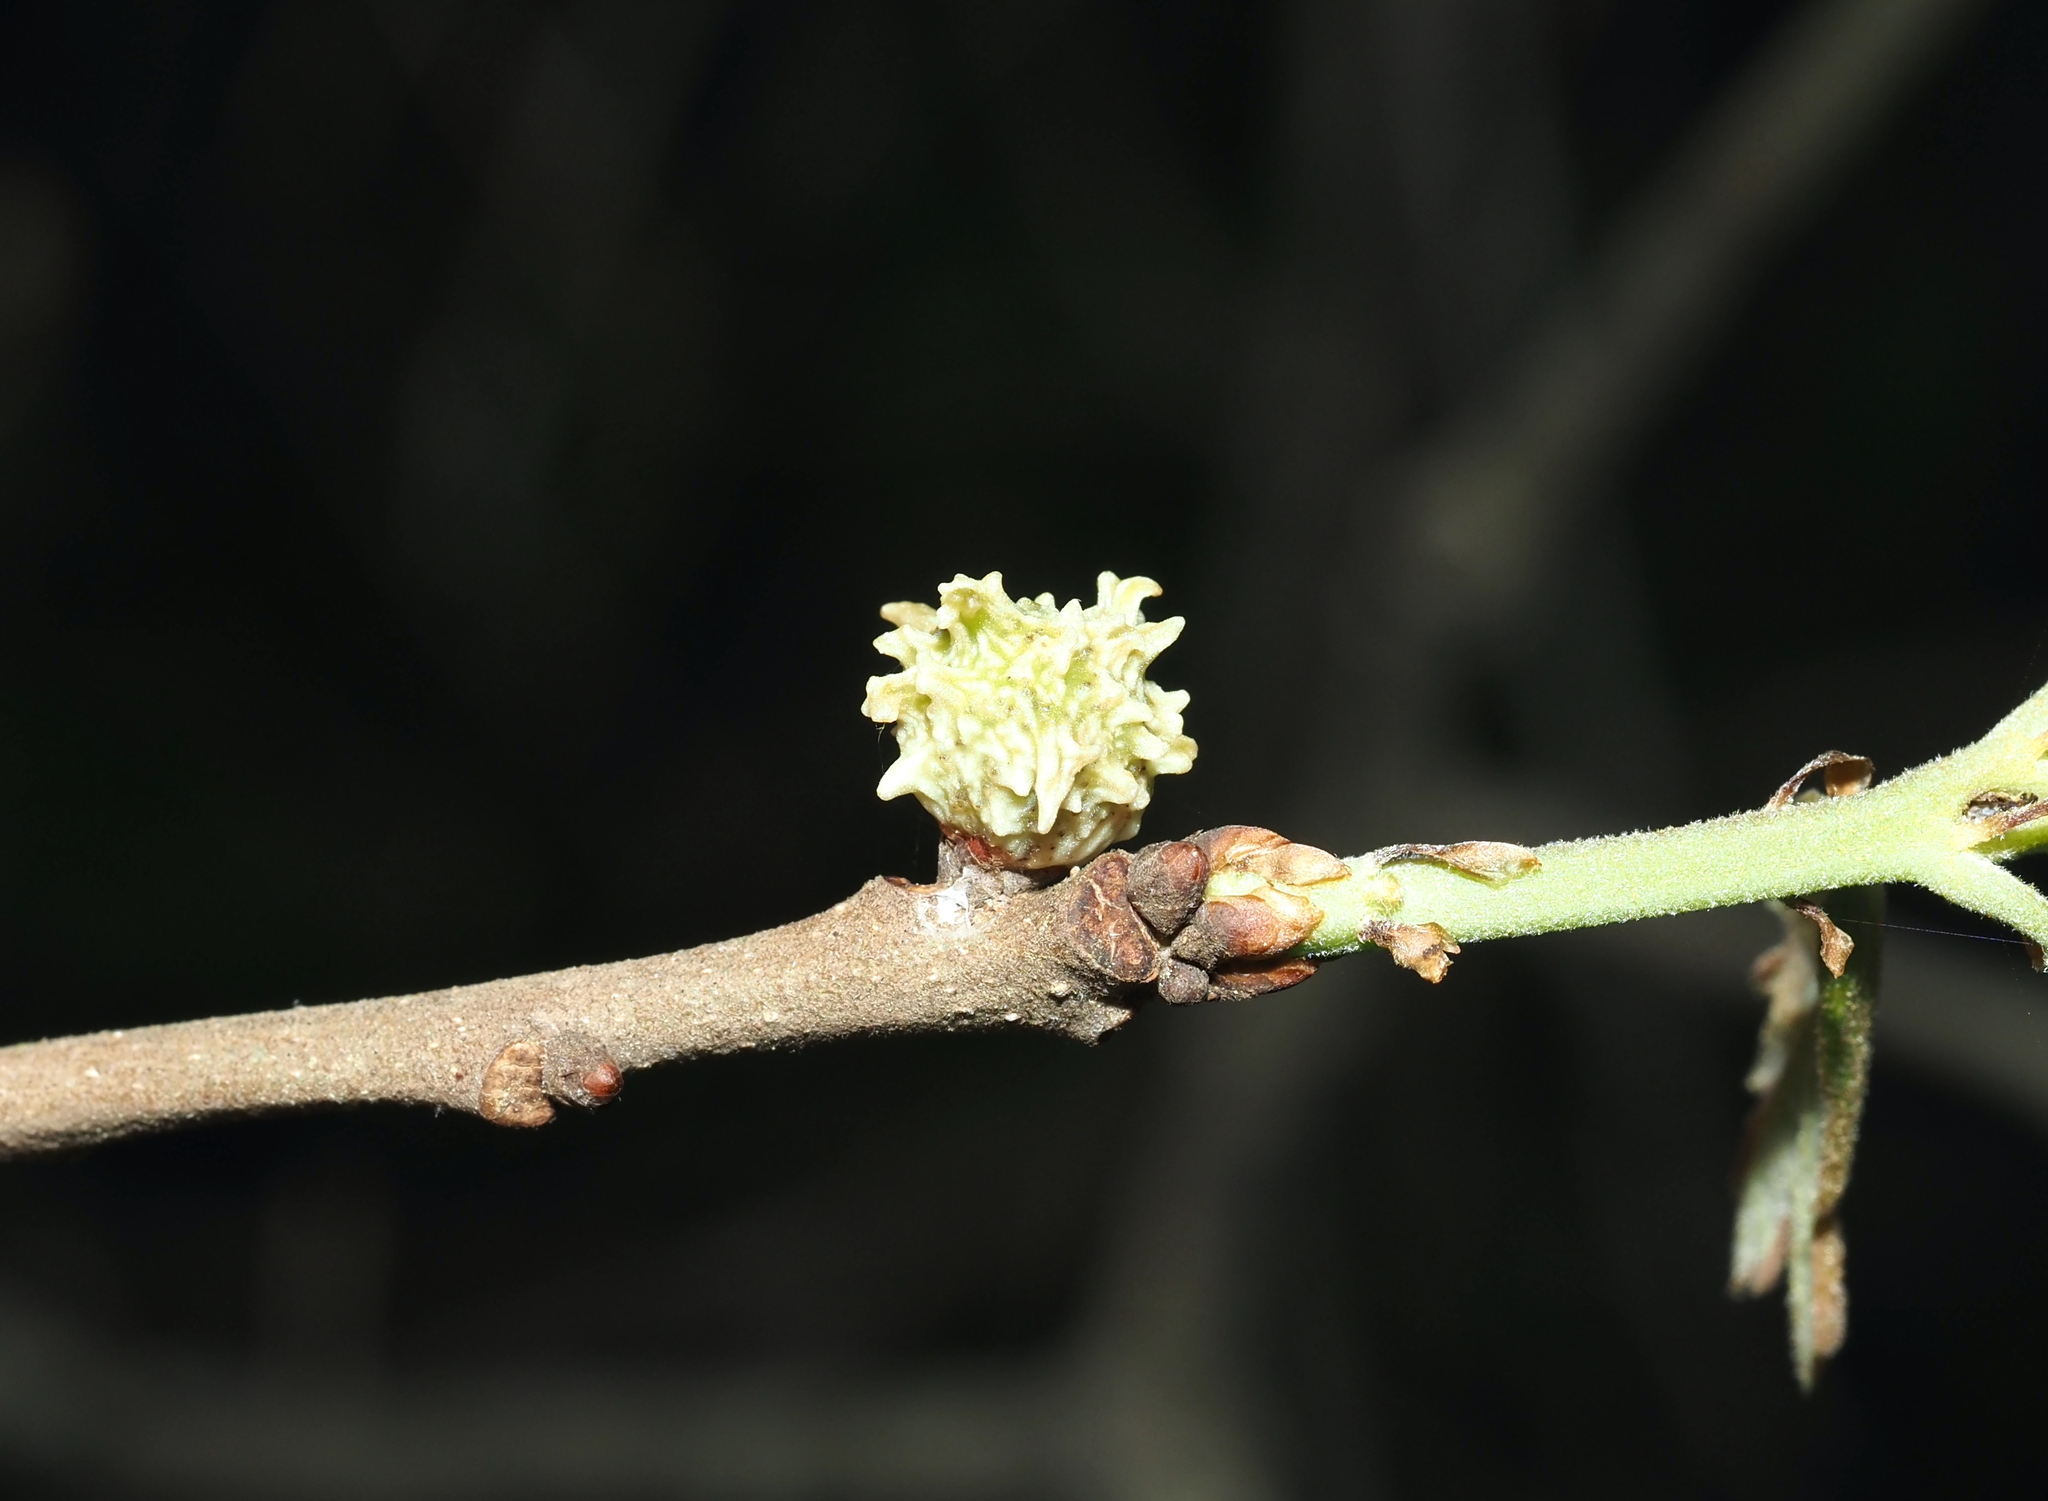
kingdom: Animalia
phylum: Arthropoda
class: Insecta
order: Hymenoptera
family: Cynipidae
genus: Andricus
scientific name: Andricus
